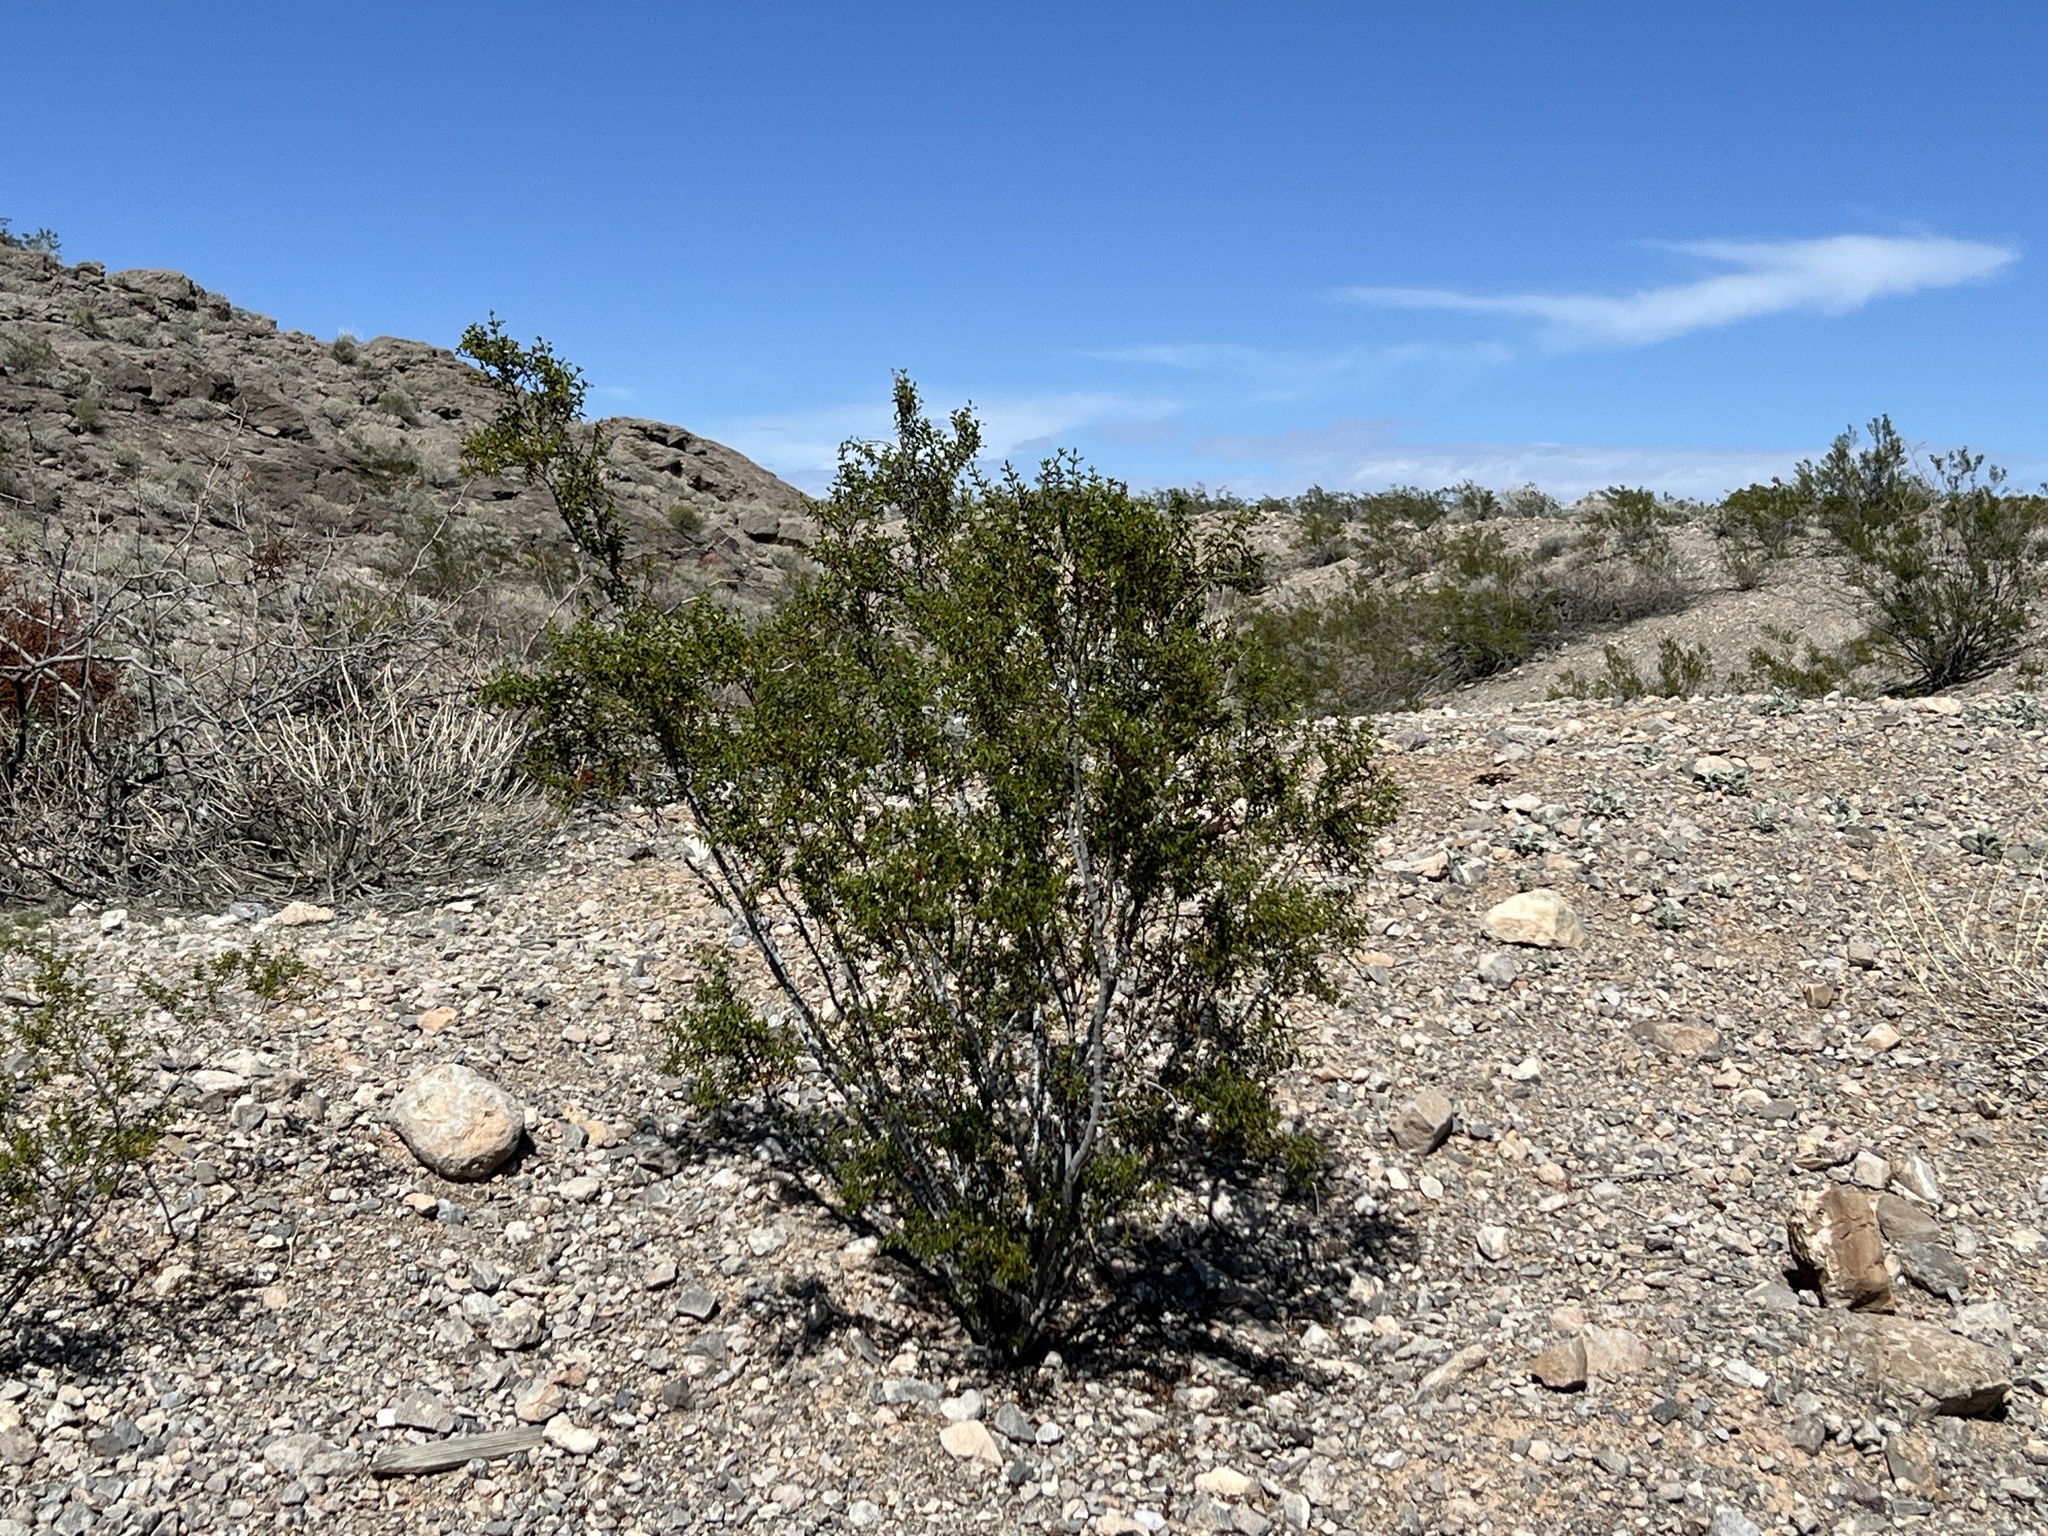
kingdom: Plantae
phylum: Tracheophyta
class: Magnoliopsida
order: Zygophyllales
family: Zygophyllaceae
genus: Larrea
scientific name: Larrea tridentata
